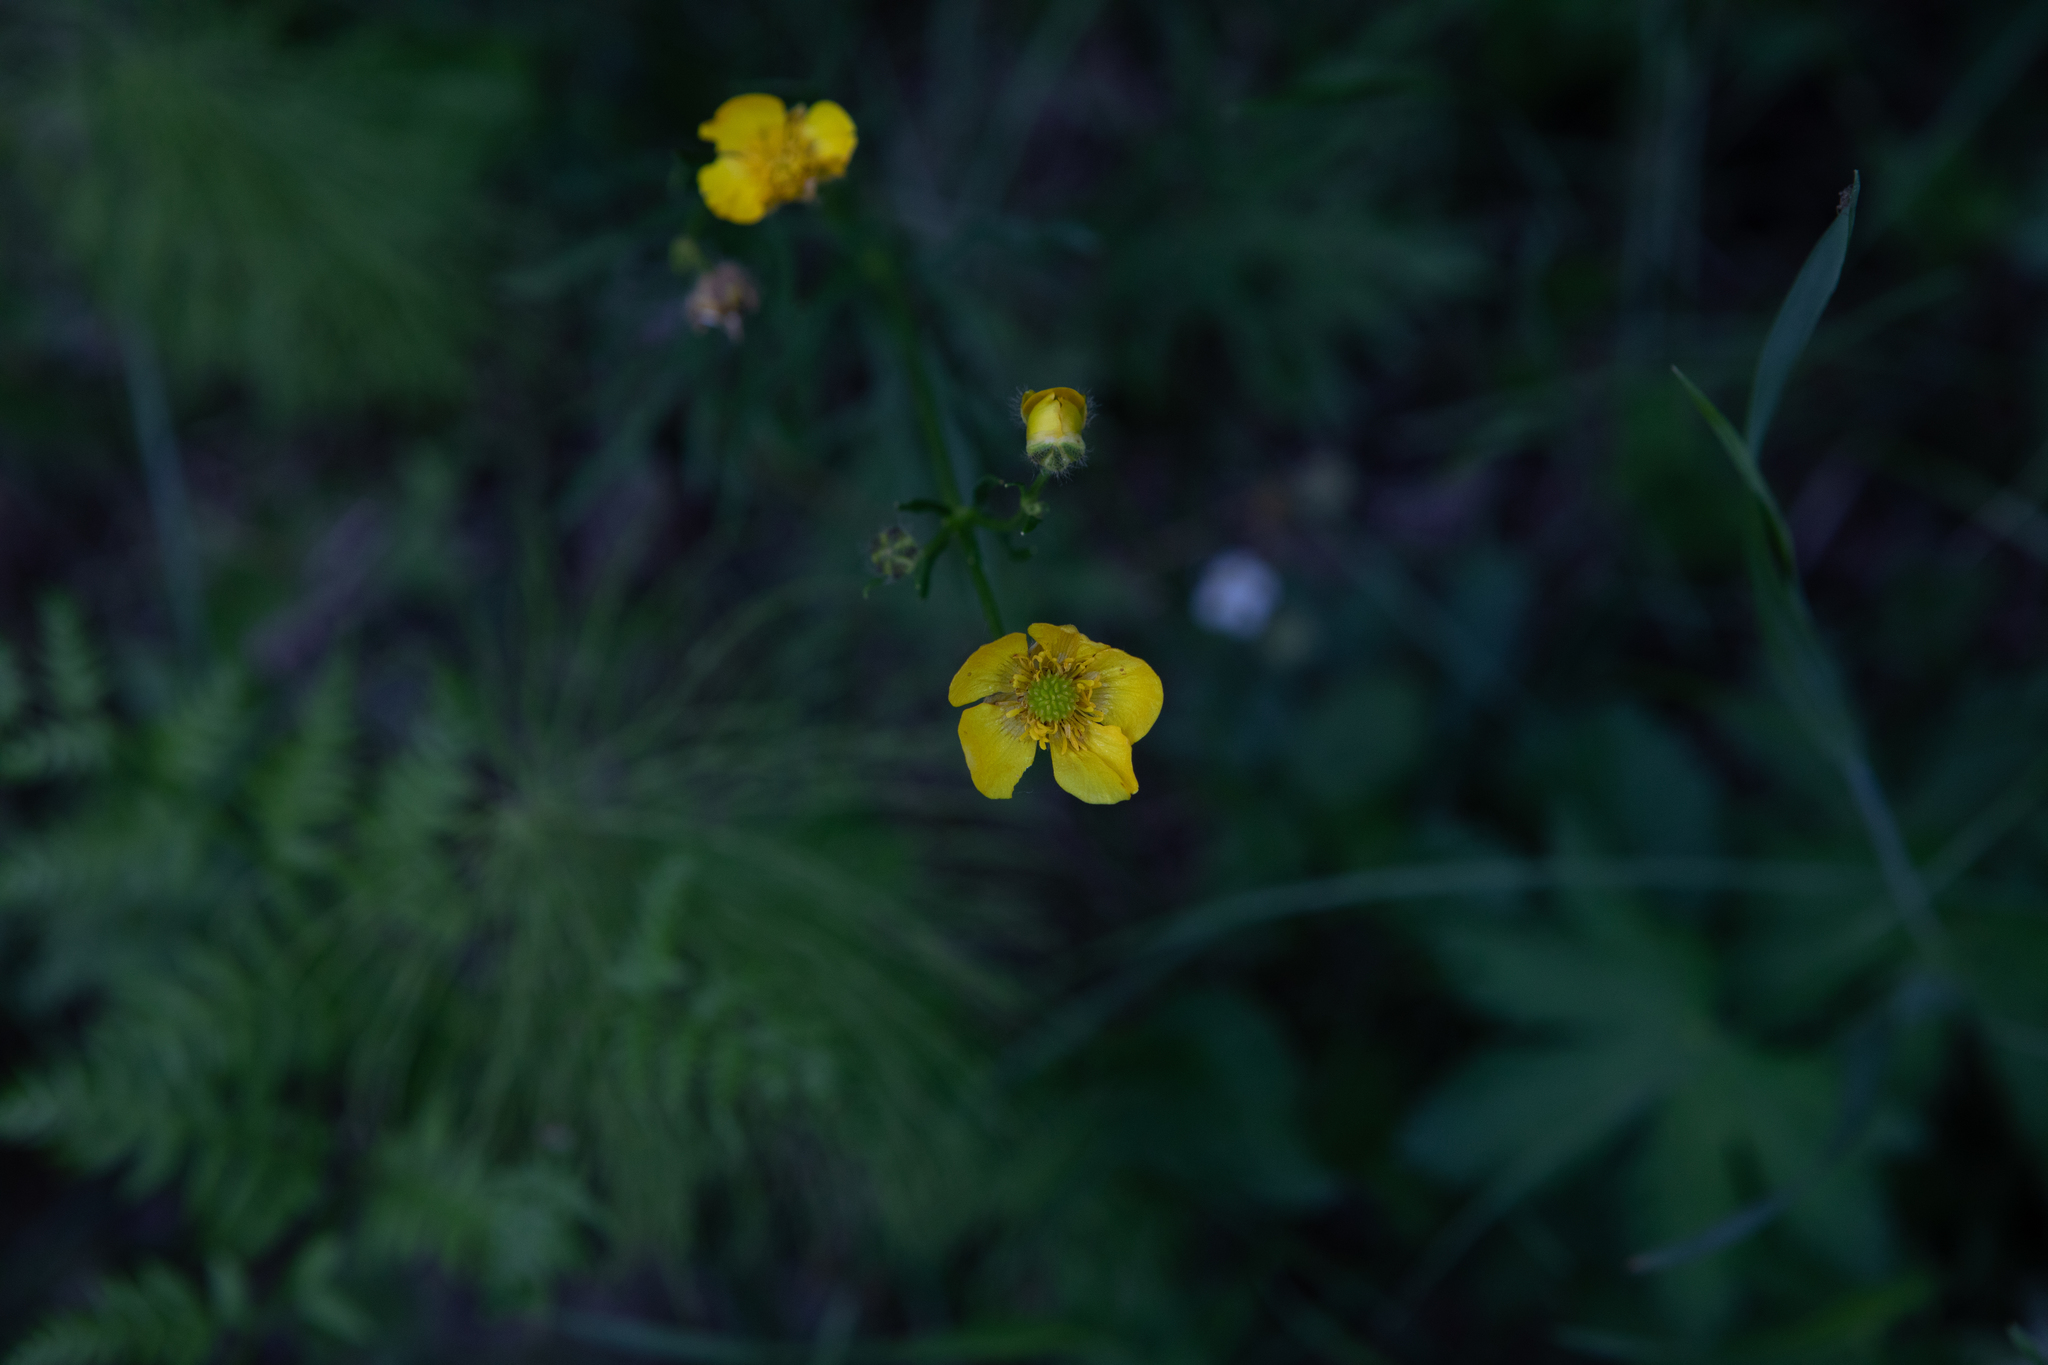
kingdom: Plantae
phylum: Tracheophyta
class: Magnoliopsida
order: Ranunculales
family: Ranunculaceae
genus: Ranunculus
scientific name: Ranunculus polyanthemos
